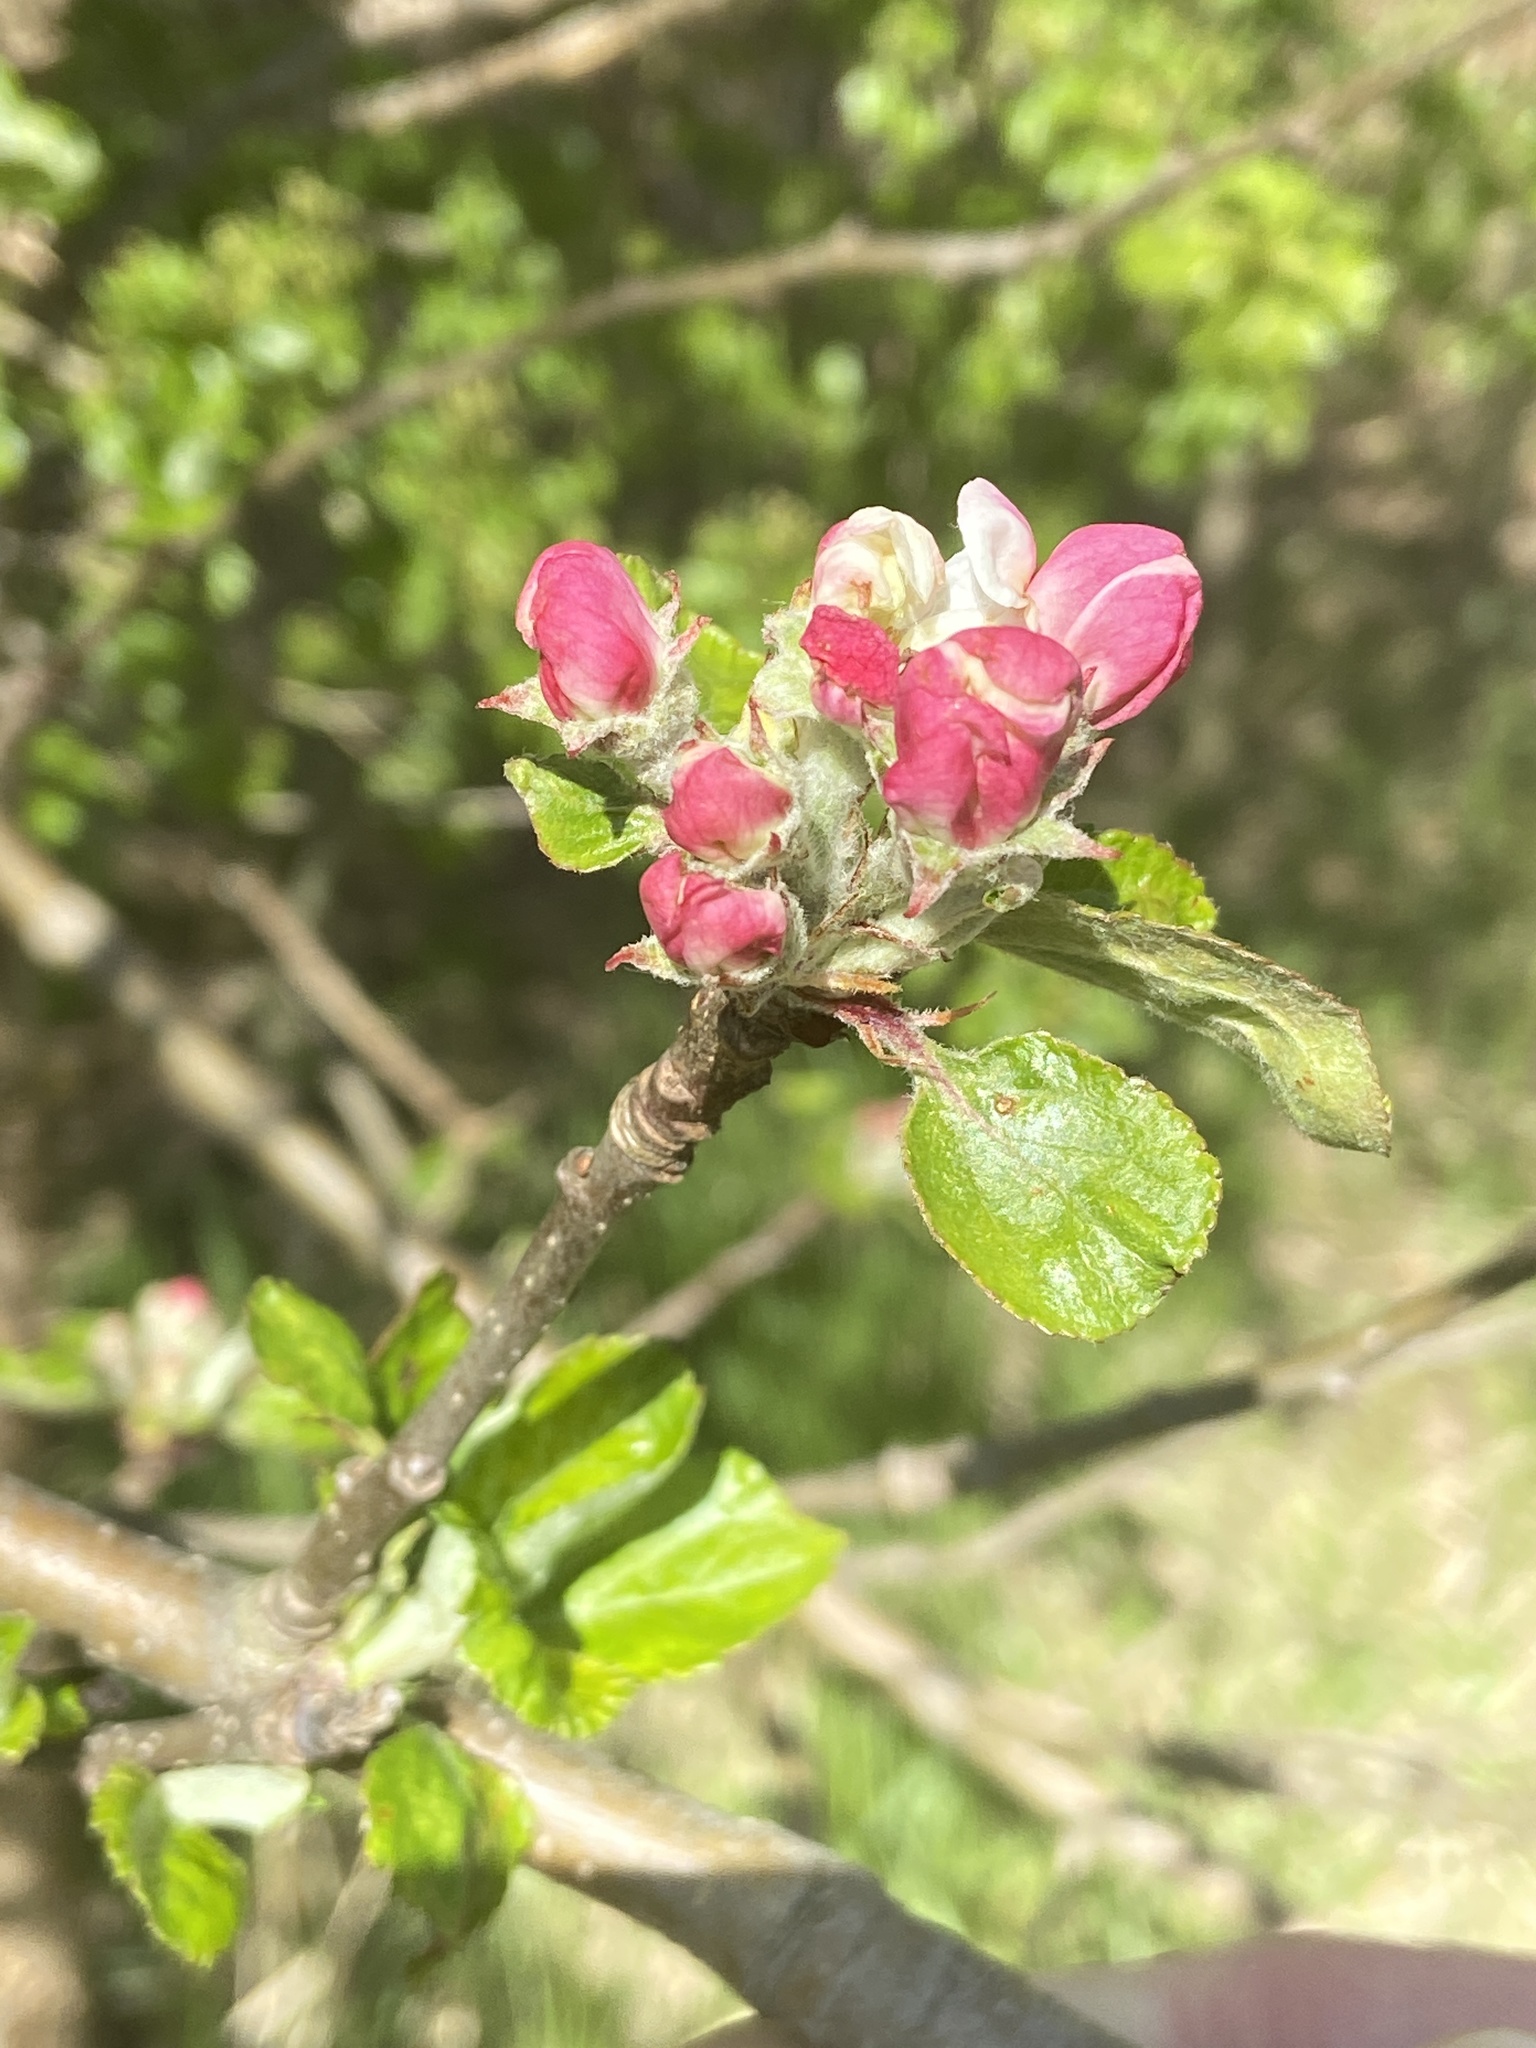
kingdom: Plantae
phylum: Tracheophyta
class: Magnoliopsida
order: Rosales
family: Rosaceae
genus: Malus
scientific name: Malus domestica
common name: Apple
